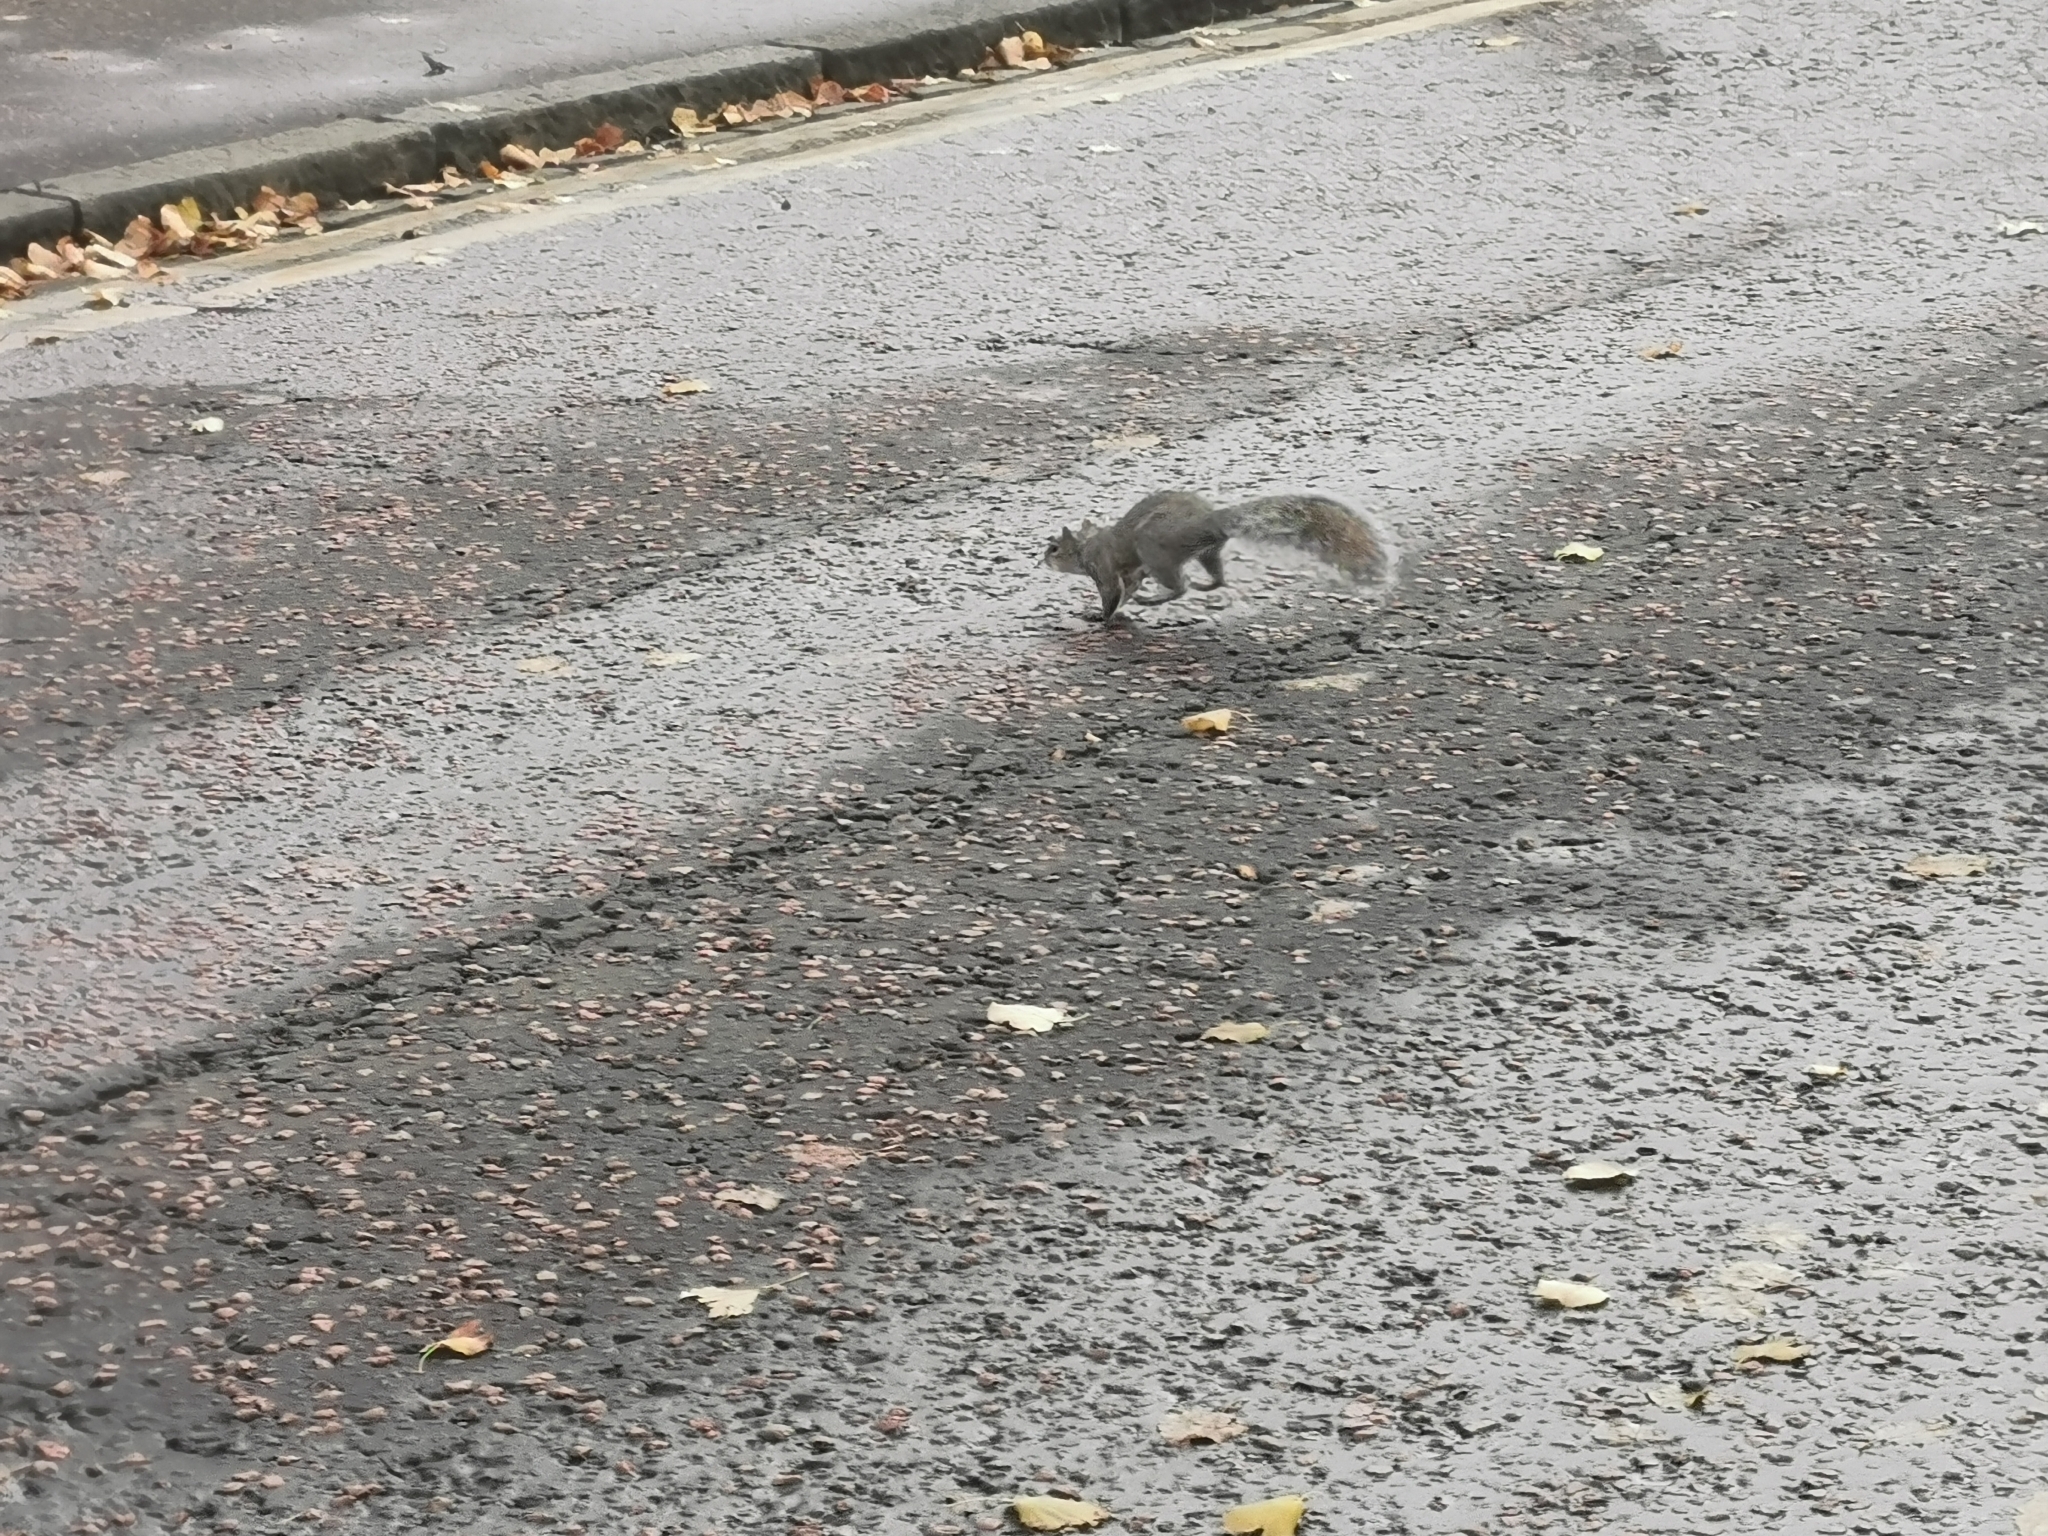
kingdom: Animalia
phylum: Chordata
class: Mammalia
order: Rodentia
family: Sciuridae
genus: Sciurus
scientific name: Sciurus carolinensis
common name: Eastern gray squirrel
